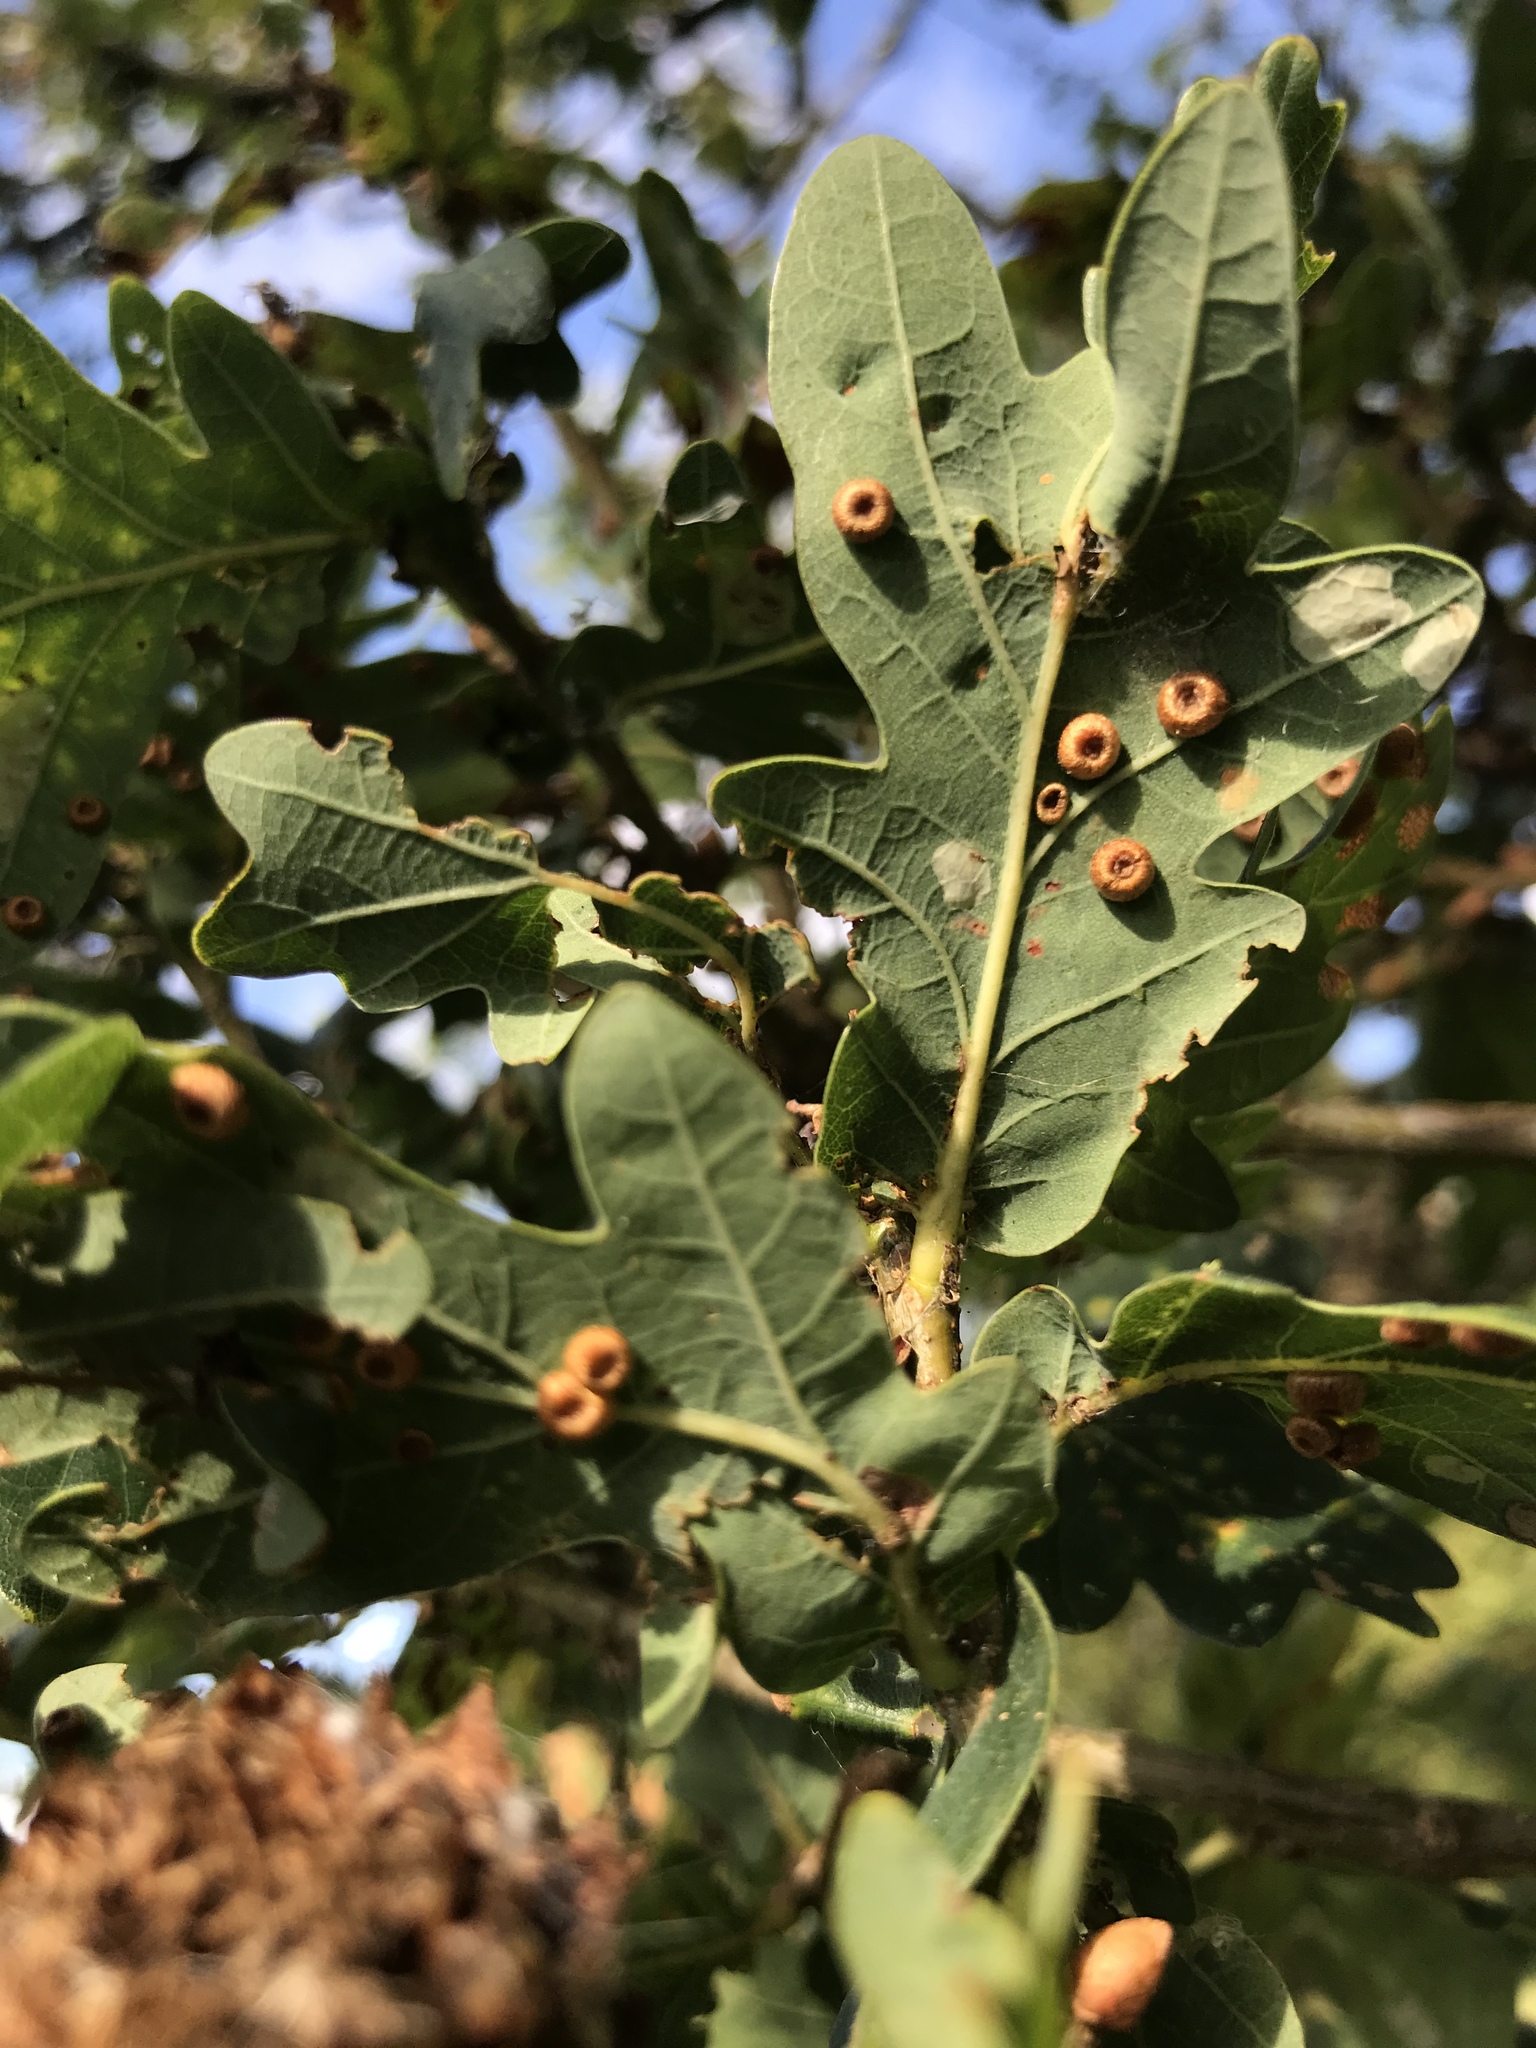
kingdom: Animalia
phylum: Arthropoda
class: Insecta
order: Hymenoptera
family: Cynipidae
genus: Neuroterus
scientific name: Neuroterus numismalis
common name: Silk-button spangle gall
